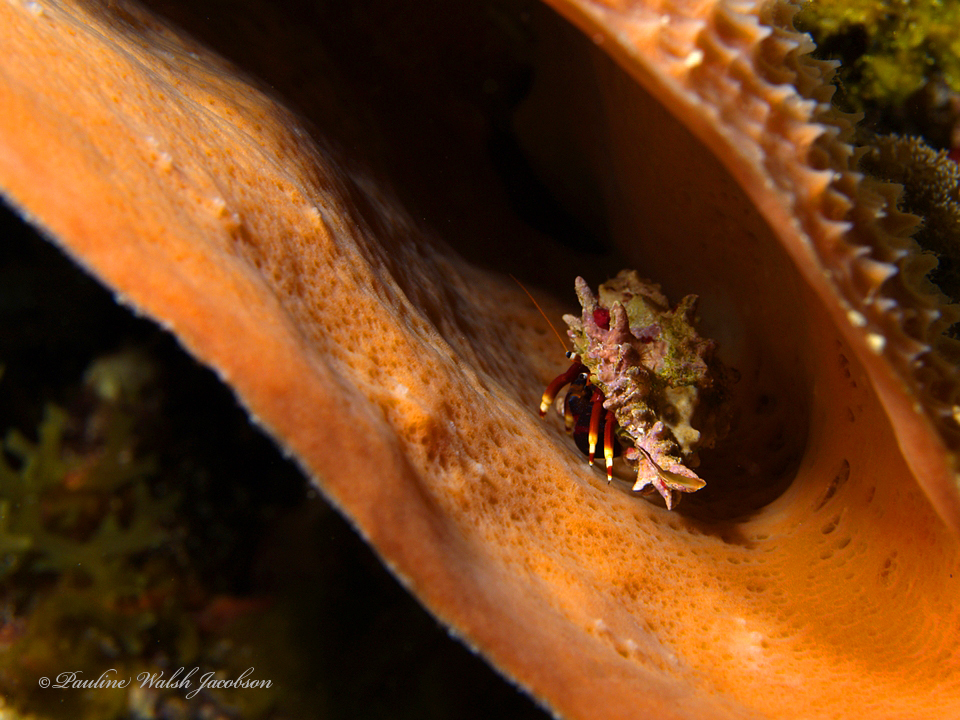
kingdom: Animalia
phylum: Arthropoda
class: Malacostraca
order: Decapoda
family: Diogenidae
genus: Calcinus
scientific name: Calcinus tibicen
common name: Orangeclaw hermit
